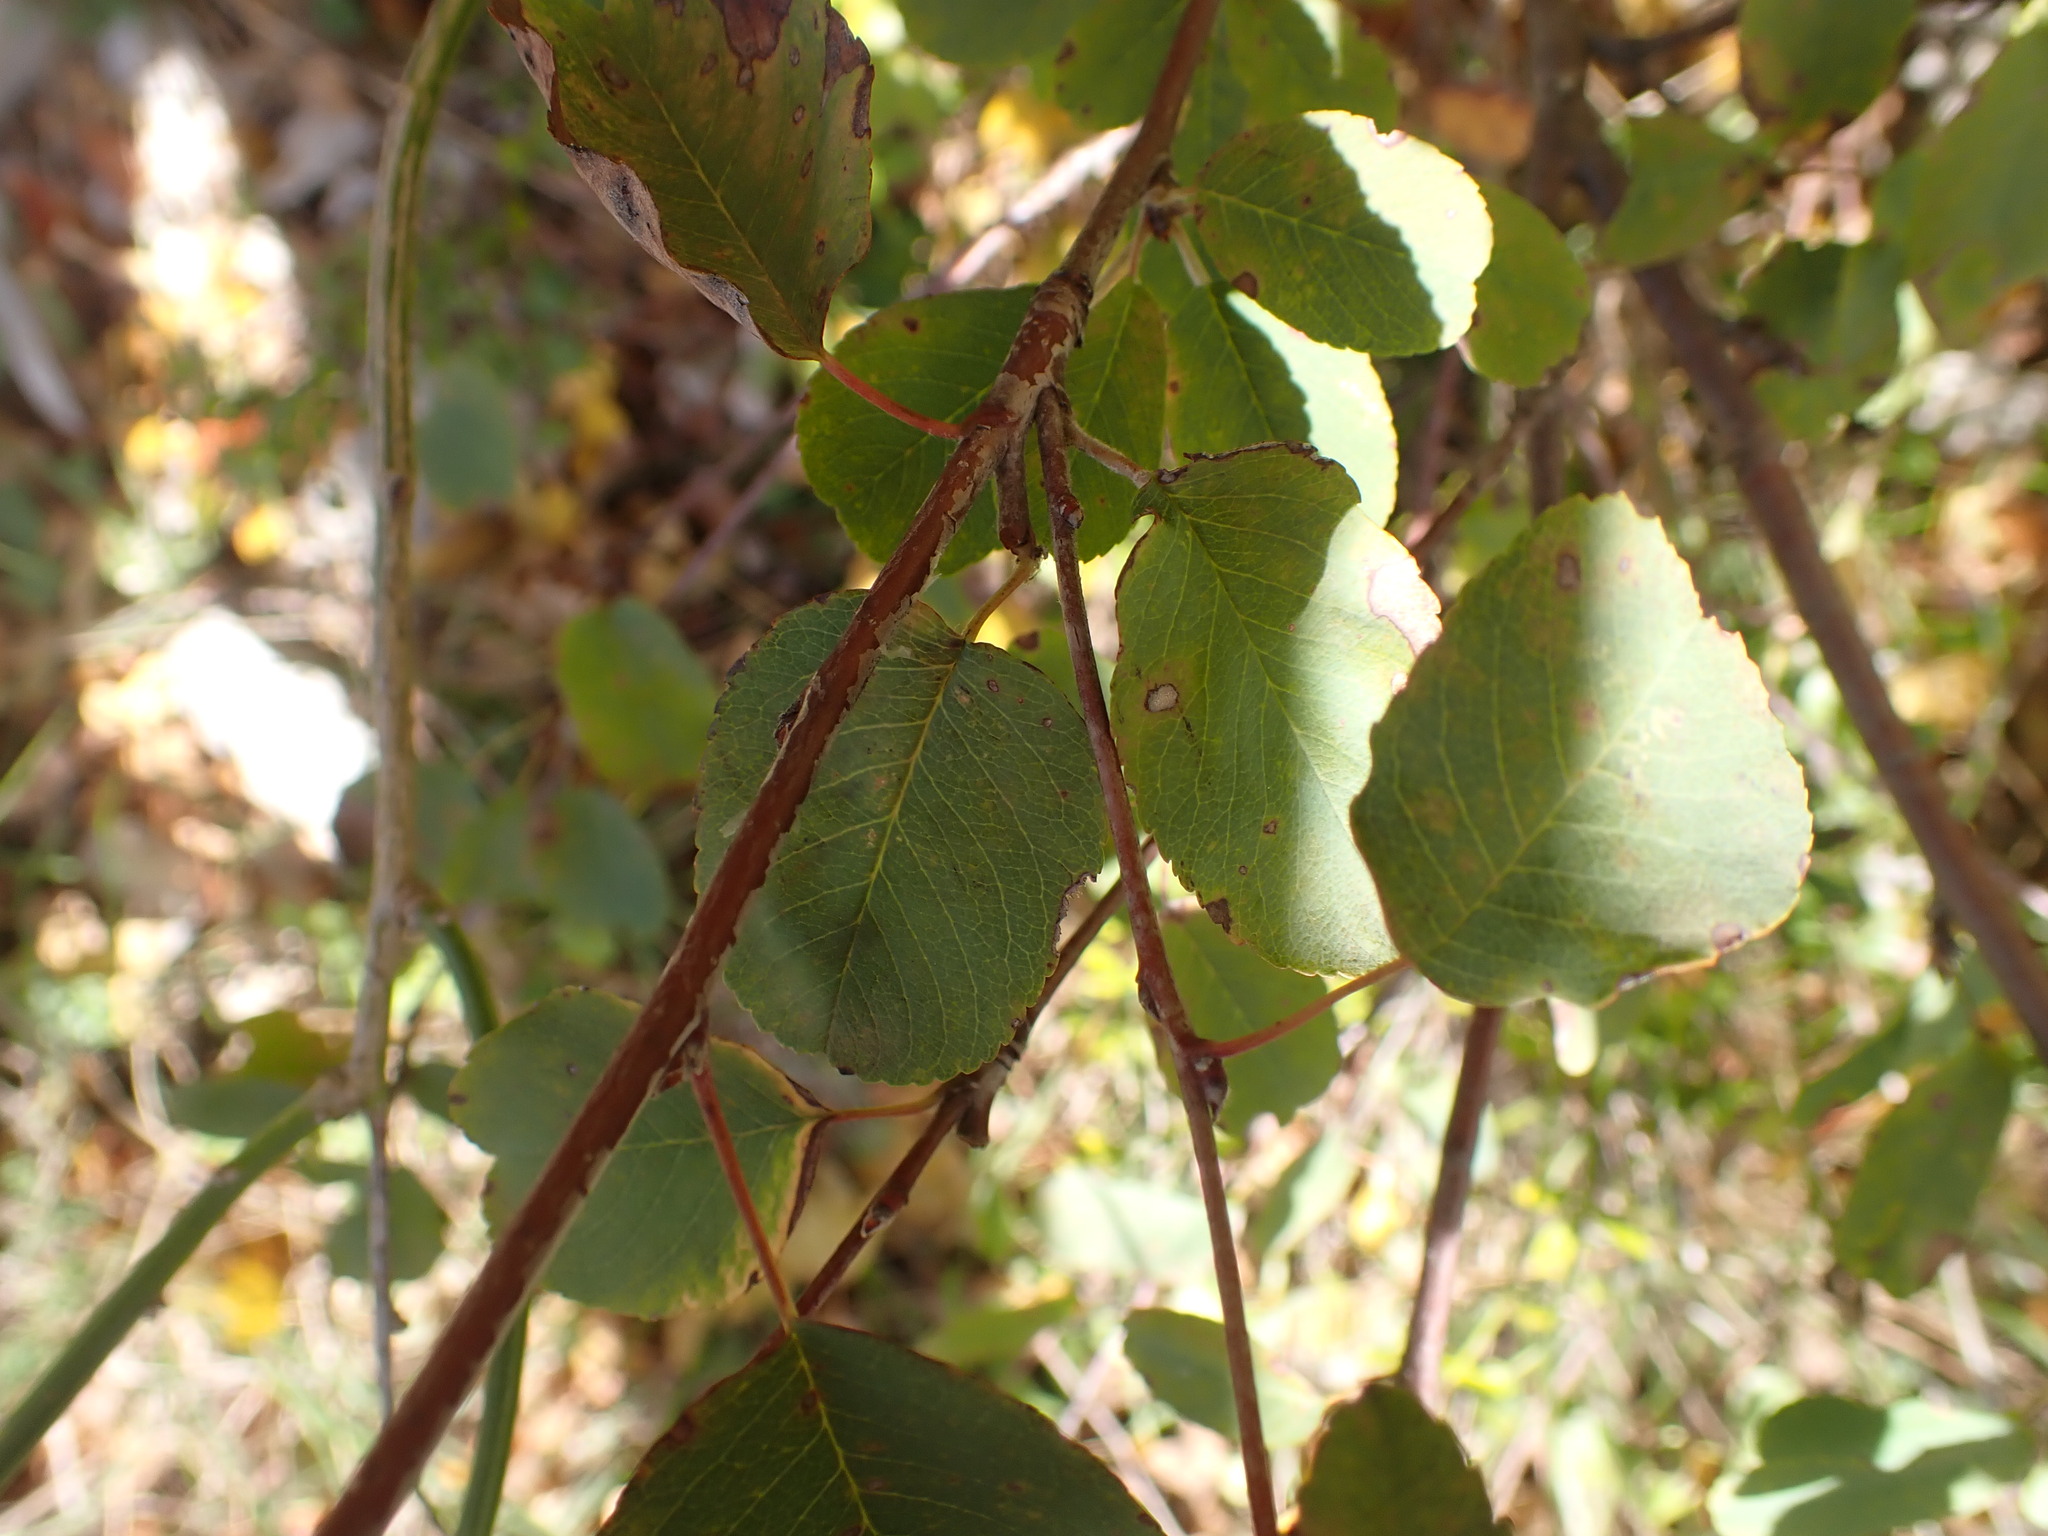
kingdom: Plantae
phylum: Tracheophyta
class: Magnoliopsida
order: Rosales
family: Rosaceae
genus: Amelanchier
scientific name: Amelanchier ovalis
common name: Serviceberry
